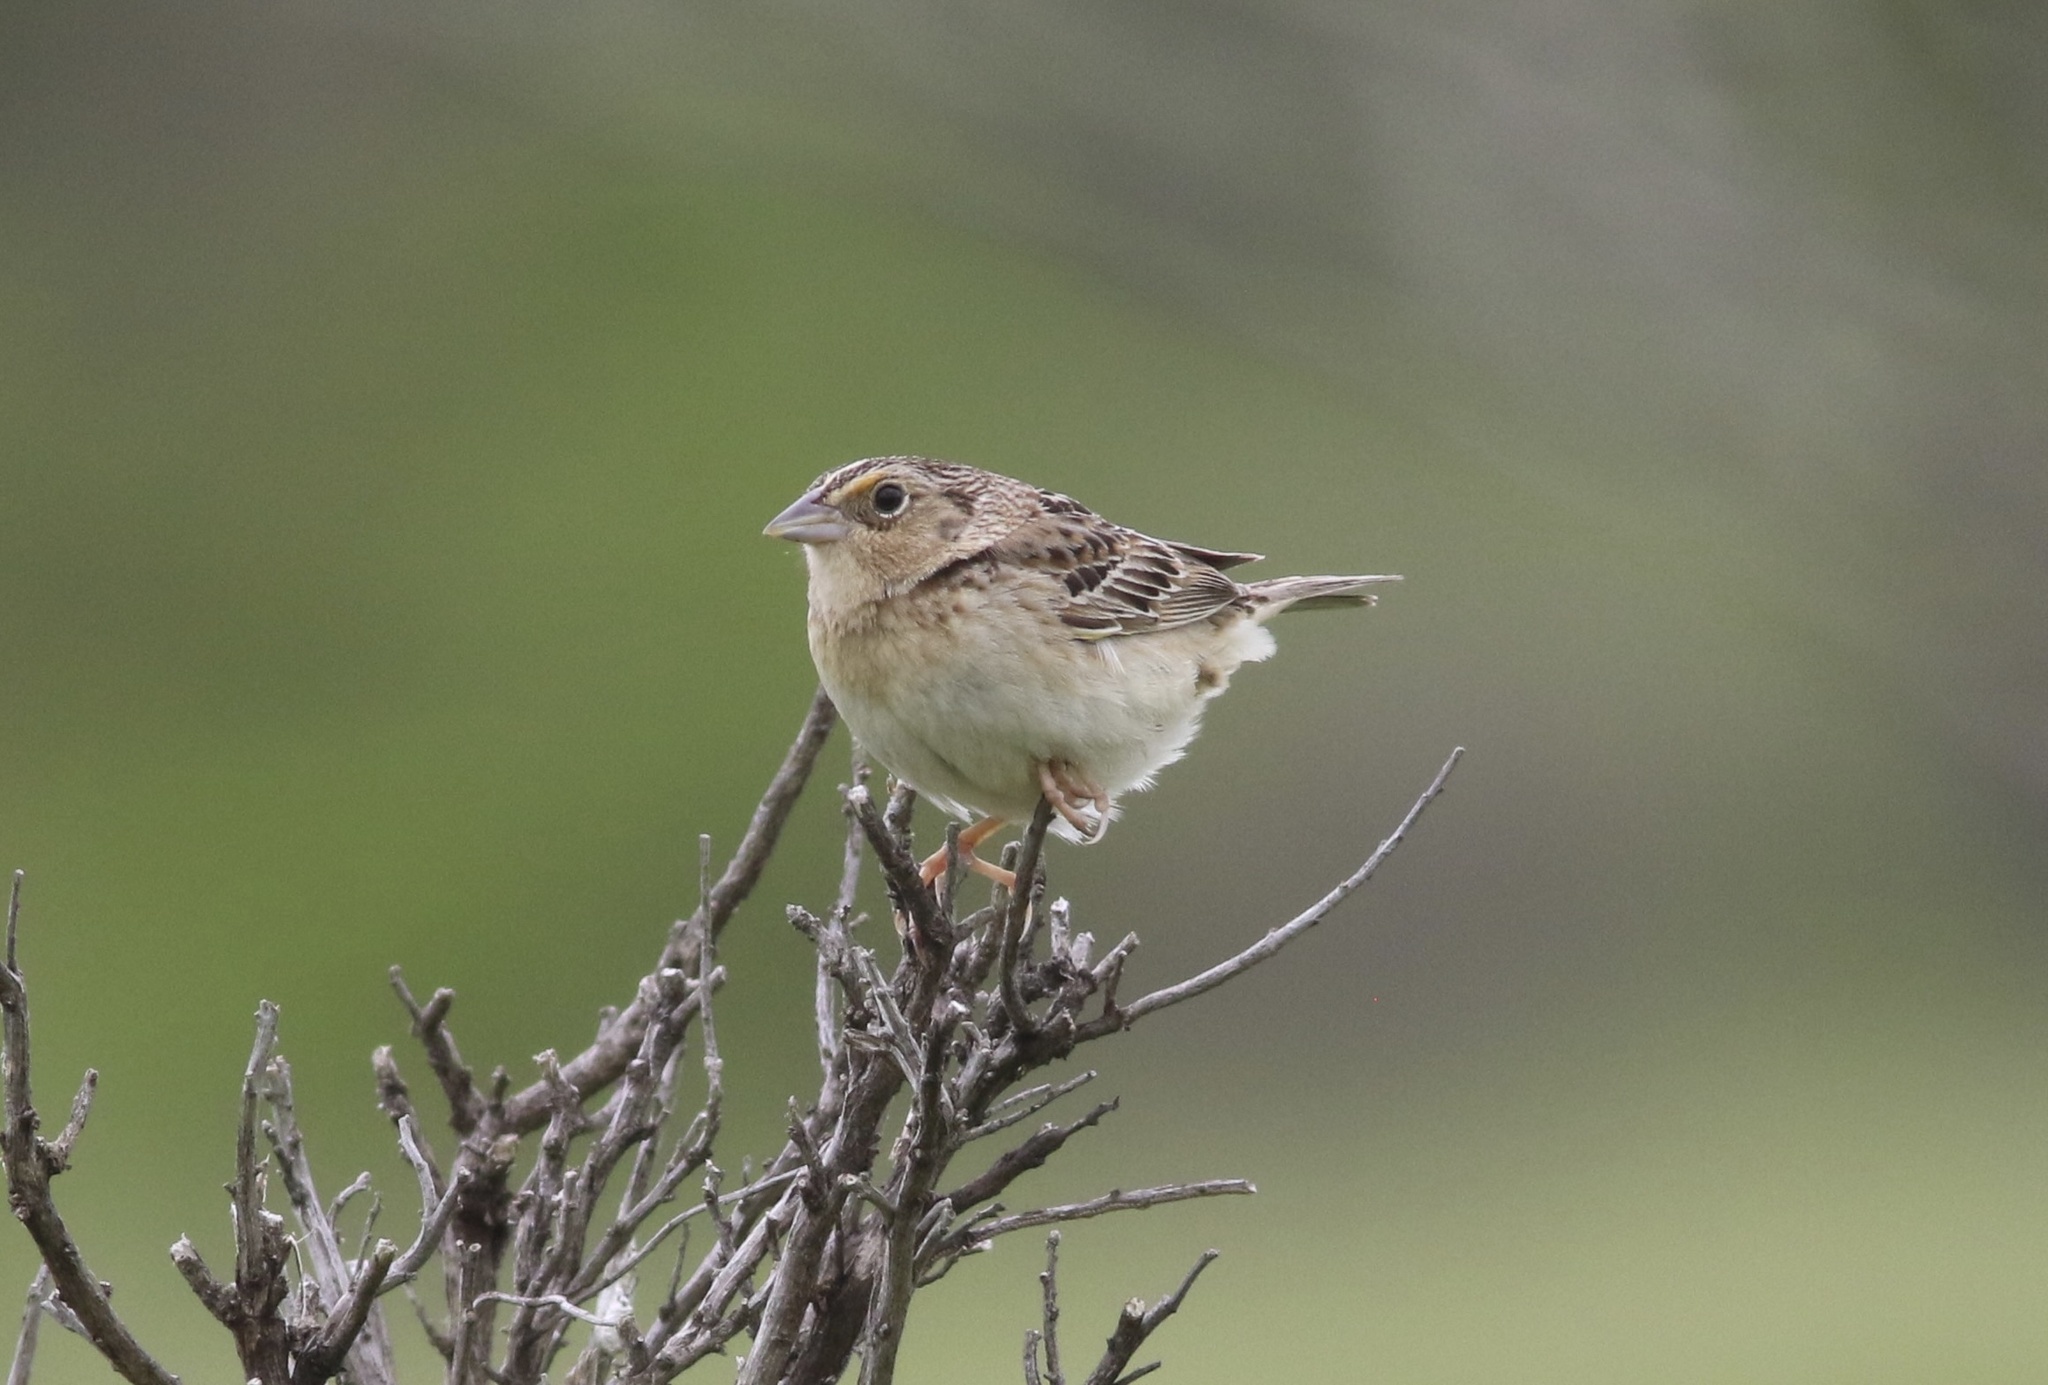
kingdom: Animalia
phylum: Chordata
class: Aves
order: Passeriformes
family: Passerellidae
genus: Ammodramus
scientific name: Ammodramus savannarum
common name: Grasshopper sparrow
